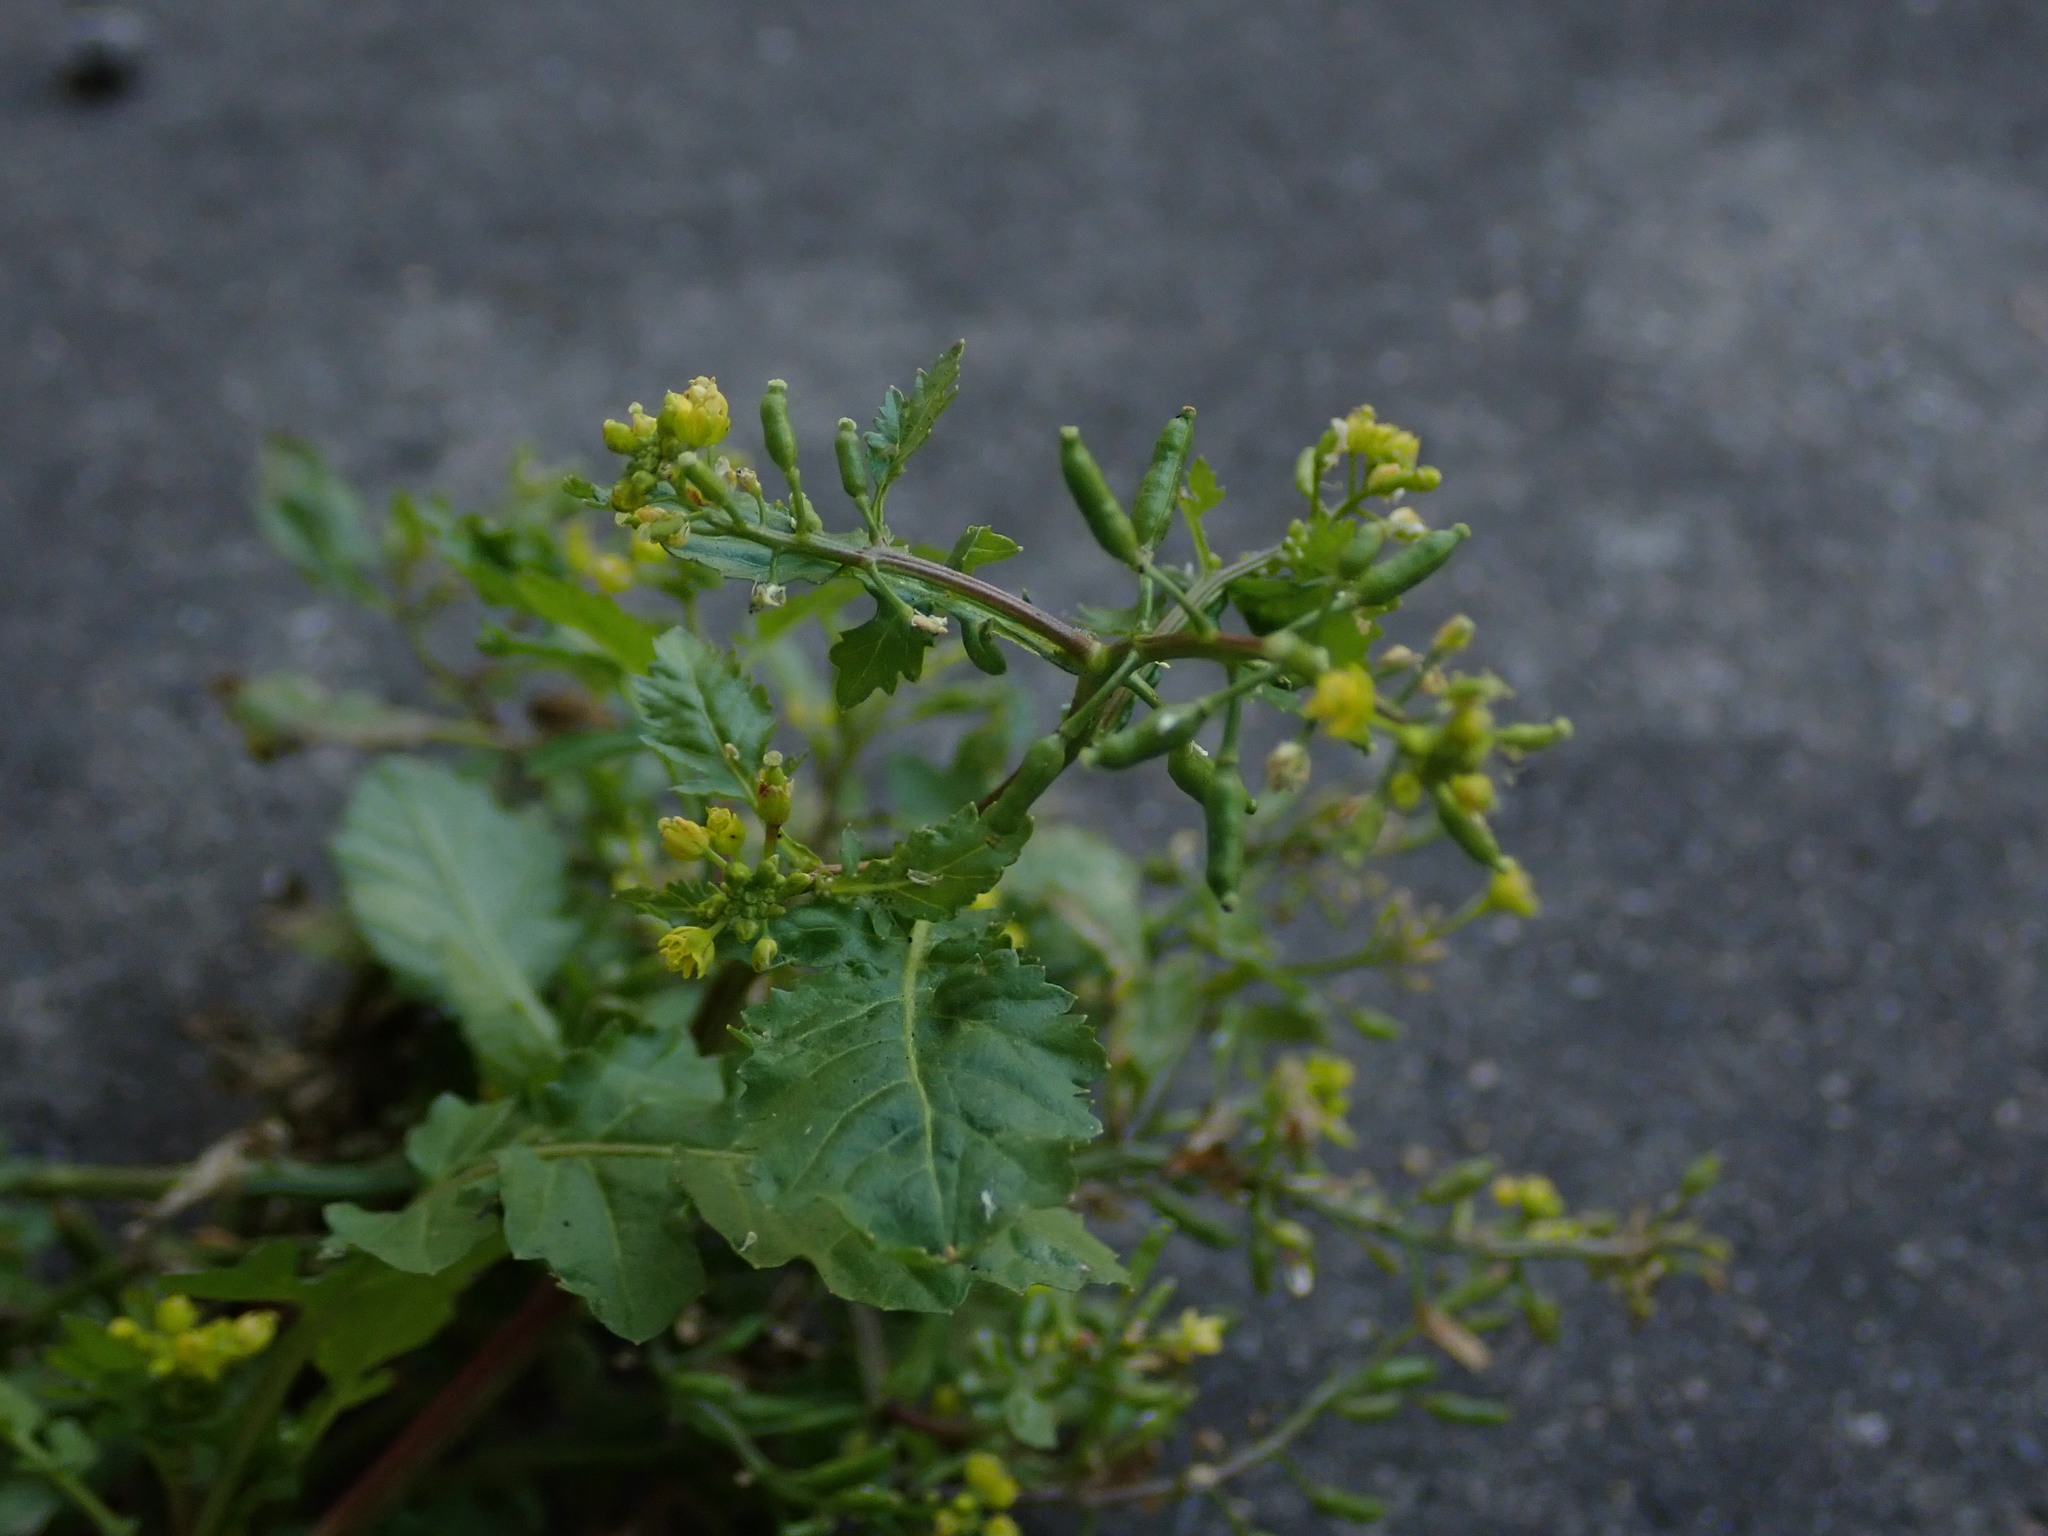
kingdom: Plantae
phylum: Tracheophyta
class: Magnoliopsida
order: Brassicales
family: Brassicaceae
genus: Rorippa
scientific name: Rorippa palustris
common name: Marsh yellow-cress
